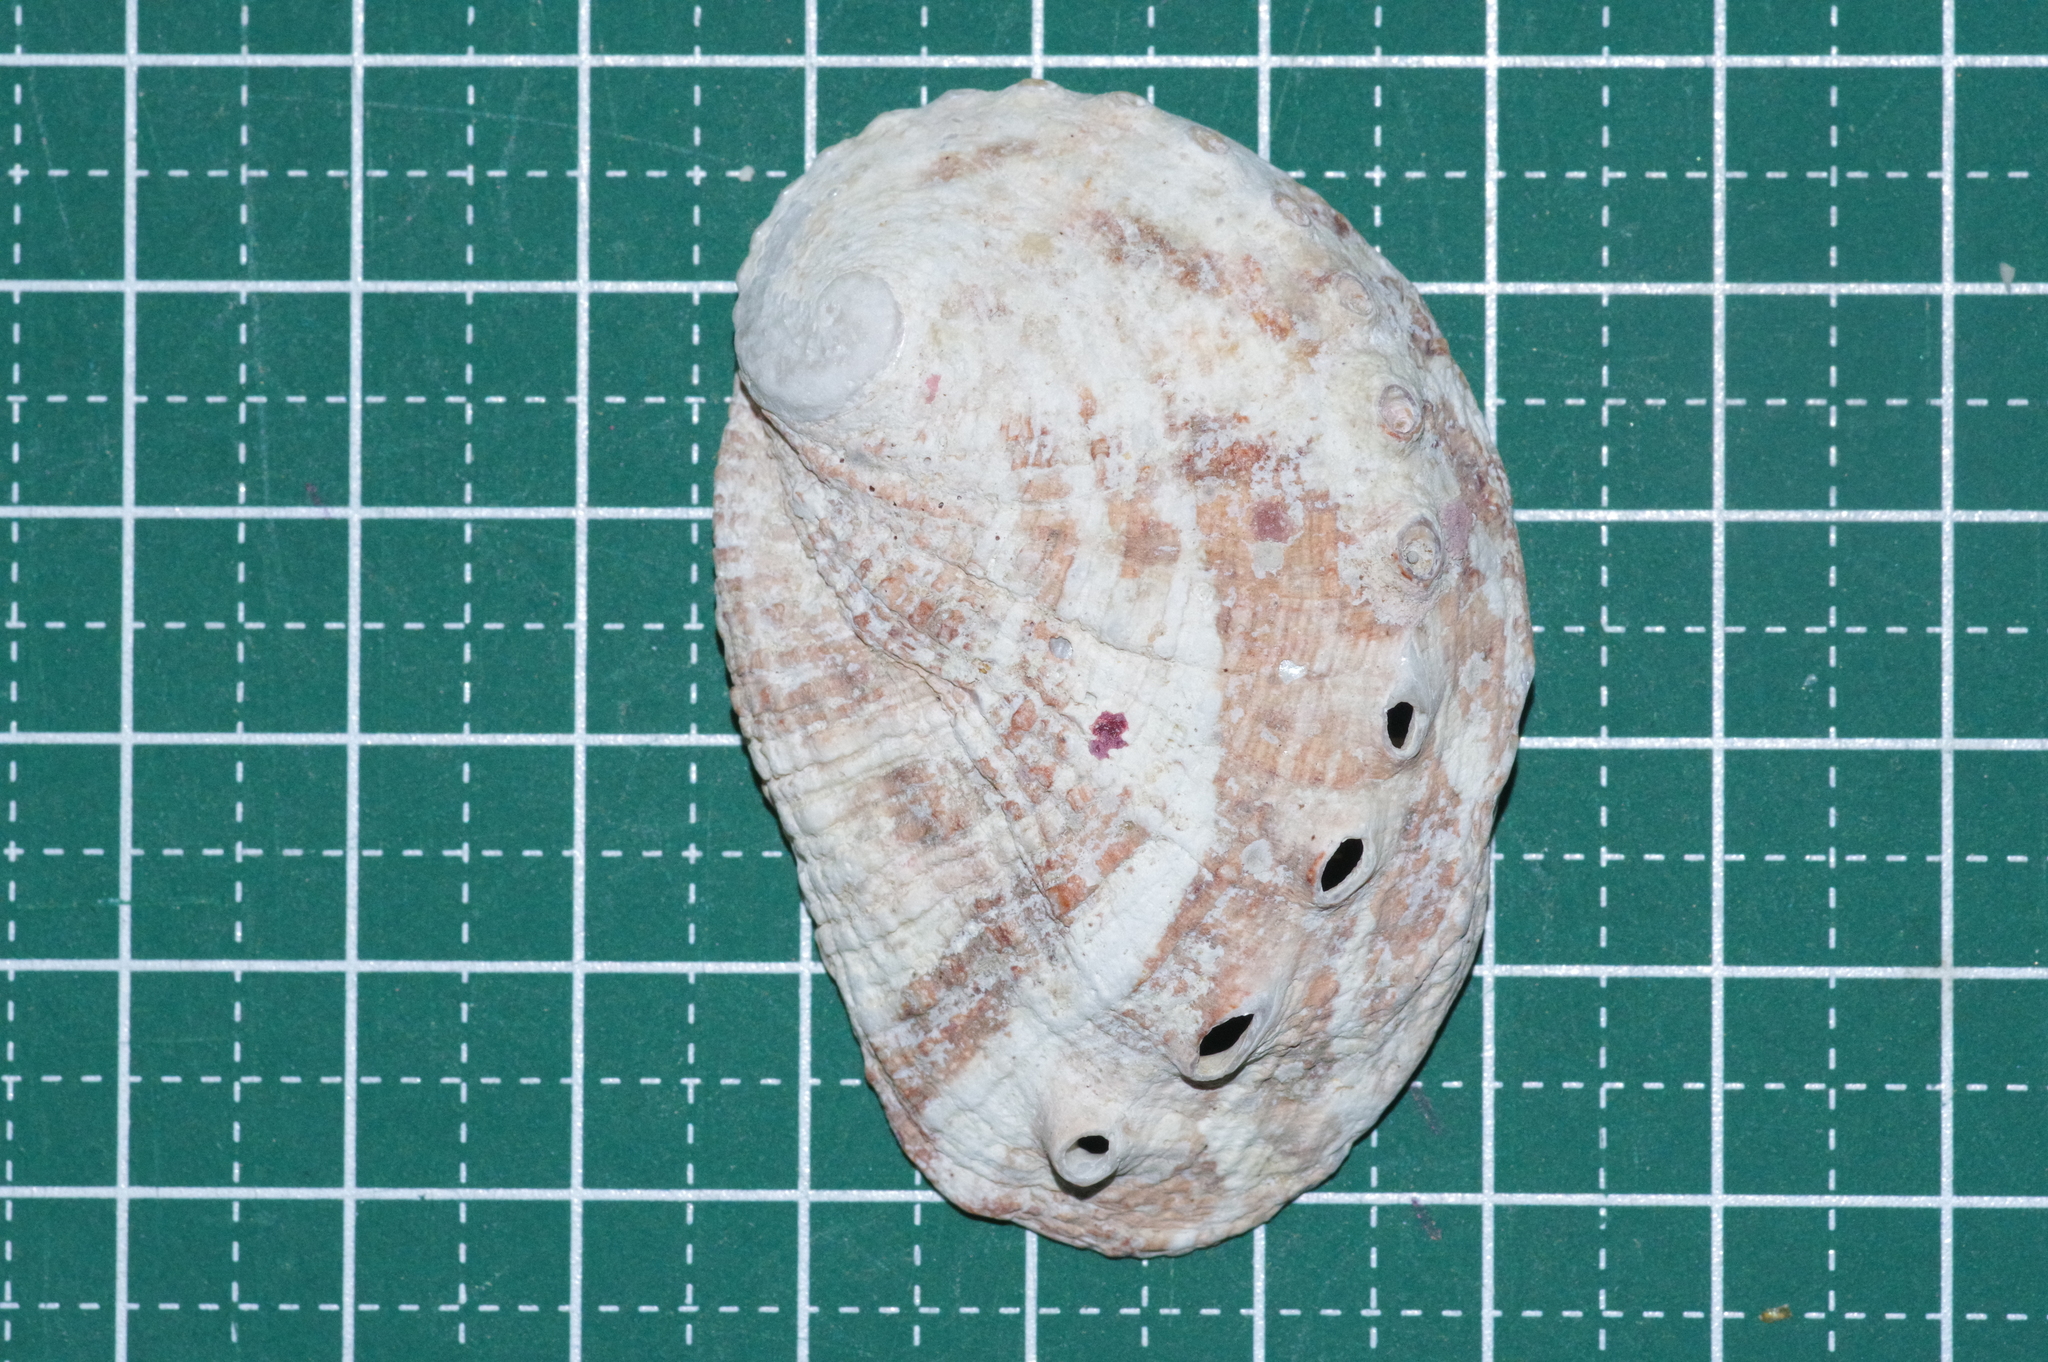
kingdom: Animalia
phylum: Mollusca
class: Gastropoda
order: Lepetellida
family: Haliotidae
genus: Haliotis
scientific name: Haliotis varia
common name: Variable abalone
